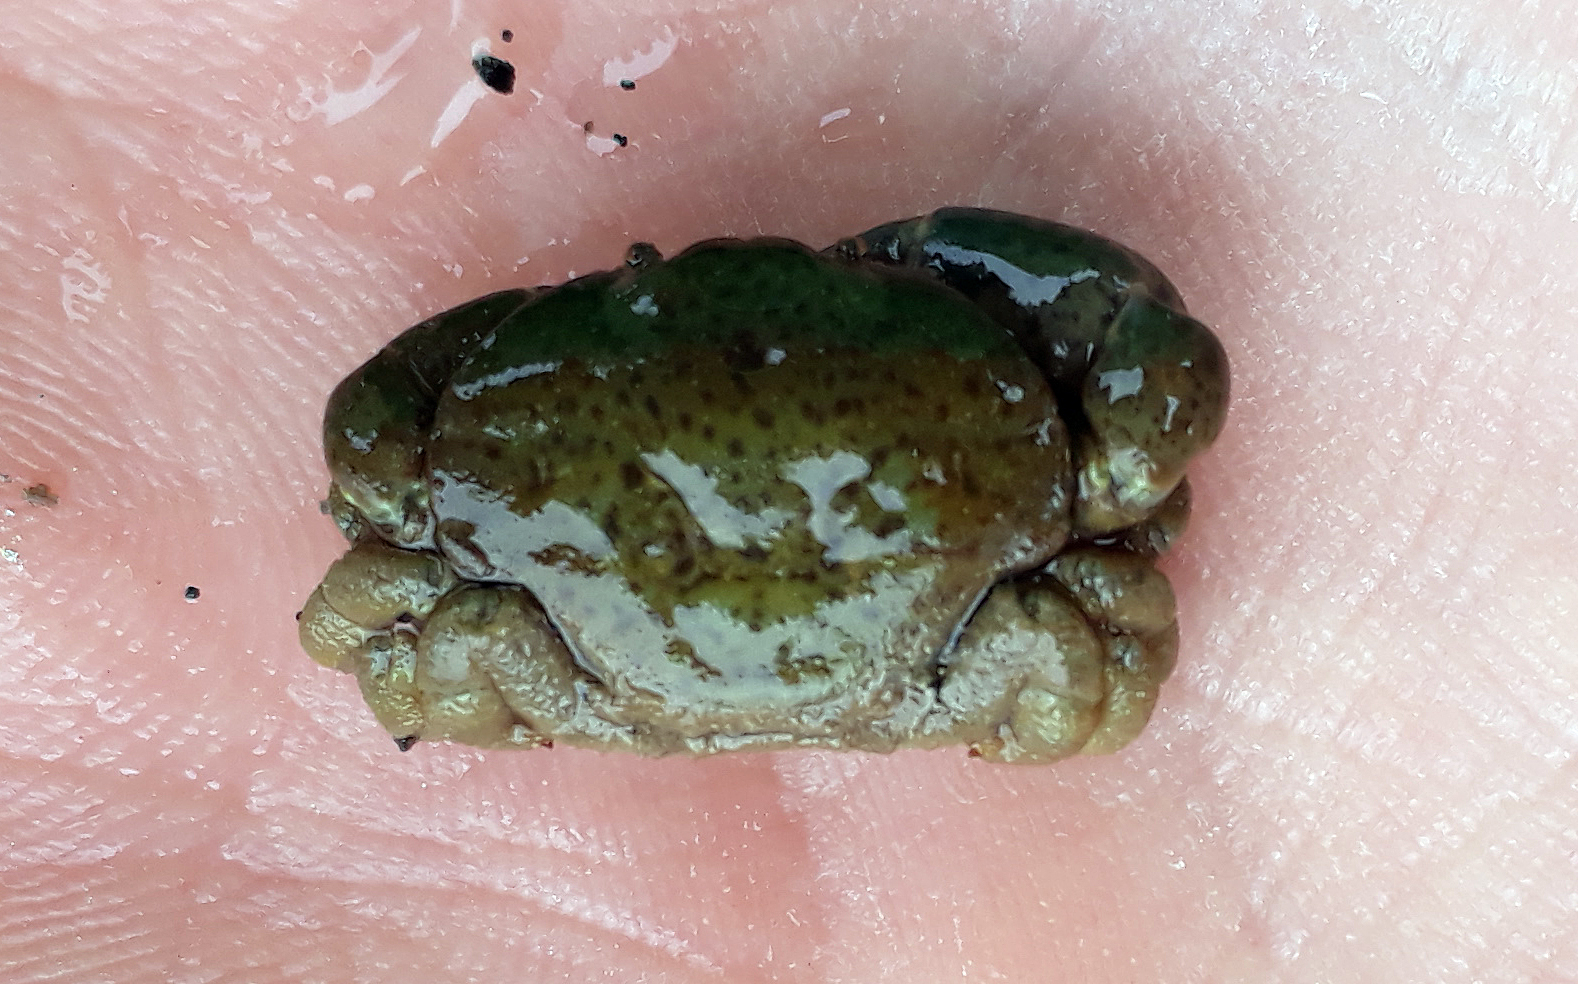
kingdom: Animalia
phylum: Arthropoda
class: Malacostraca
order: Decapoda
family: Heteroziidae
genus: Heterozius
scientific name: Heterozius rotundifrons
